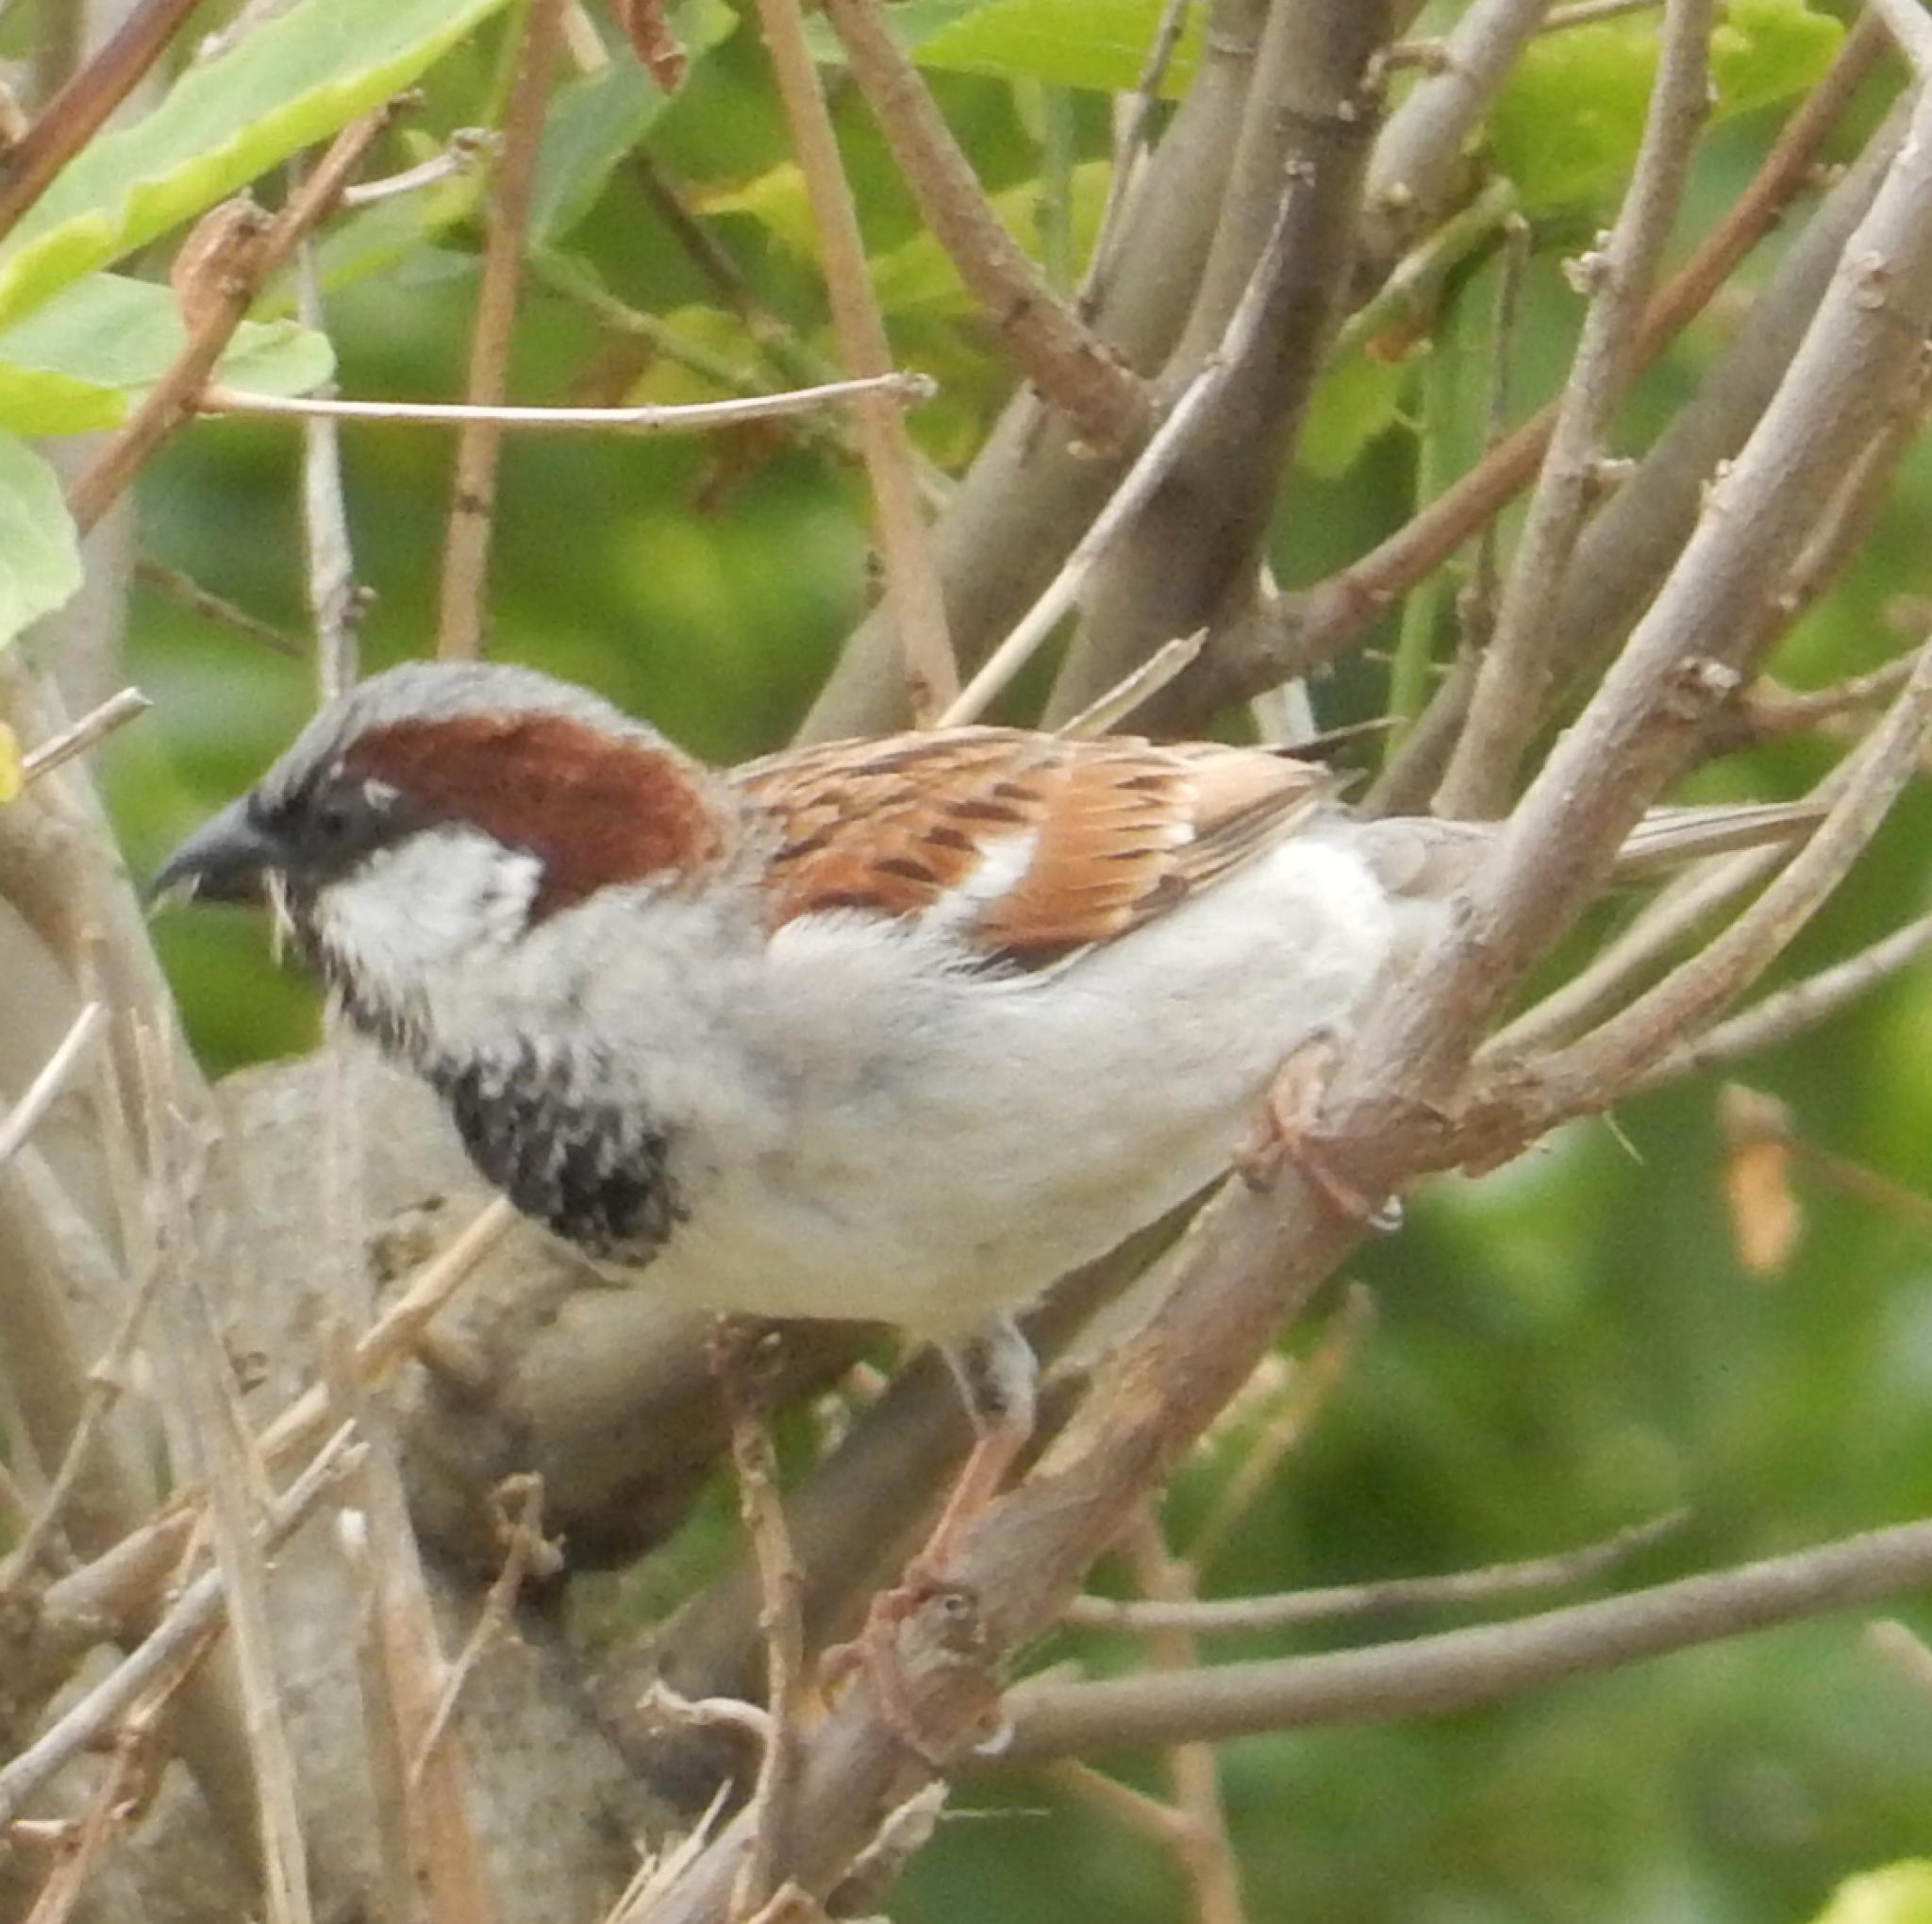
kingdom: Animalia
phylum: Chordata
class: Aves
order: Passeriformes
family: Passeridae
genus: Passer
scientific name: Passer domesticus
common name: House sparrow
